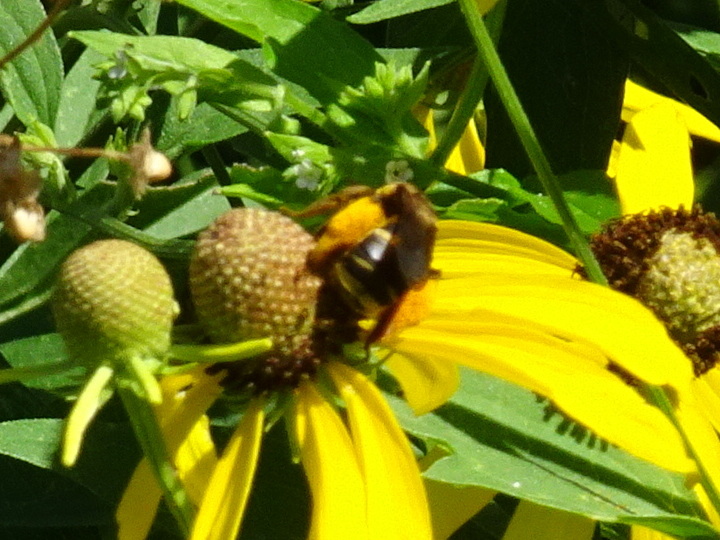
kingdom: Animalia
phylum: Arthropoda
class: Insecta
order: Hymenoptera
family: Apidae
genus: Svastra
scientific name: Svastra obliqua
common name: Oblique longhorn
